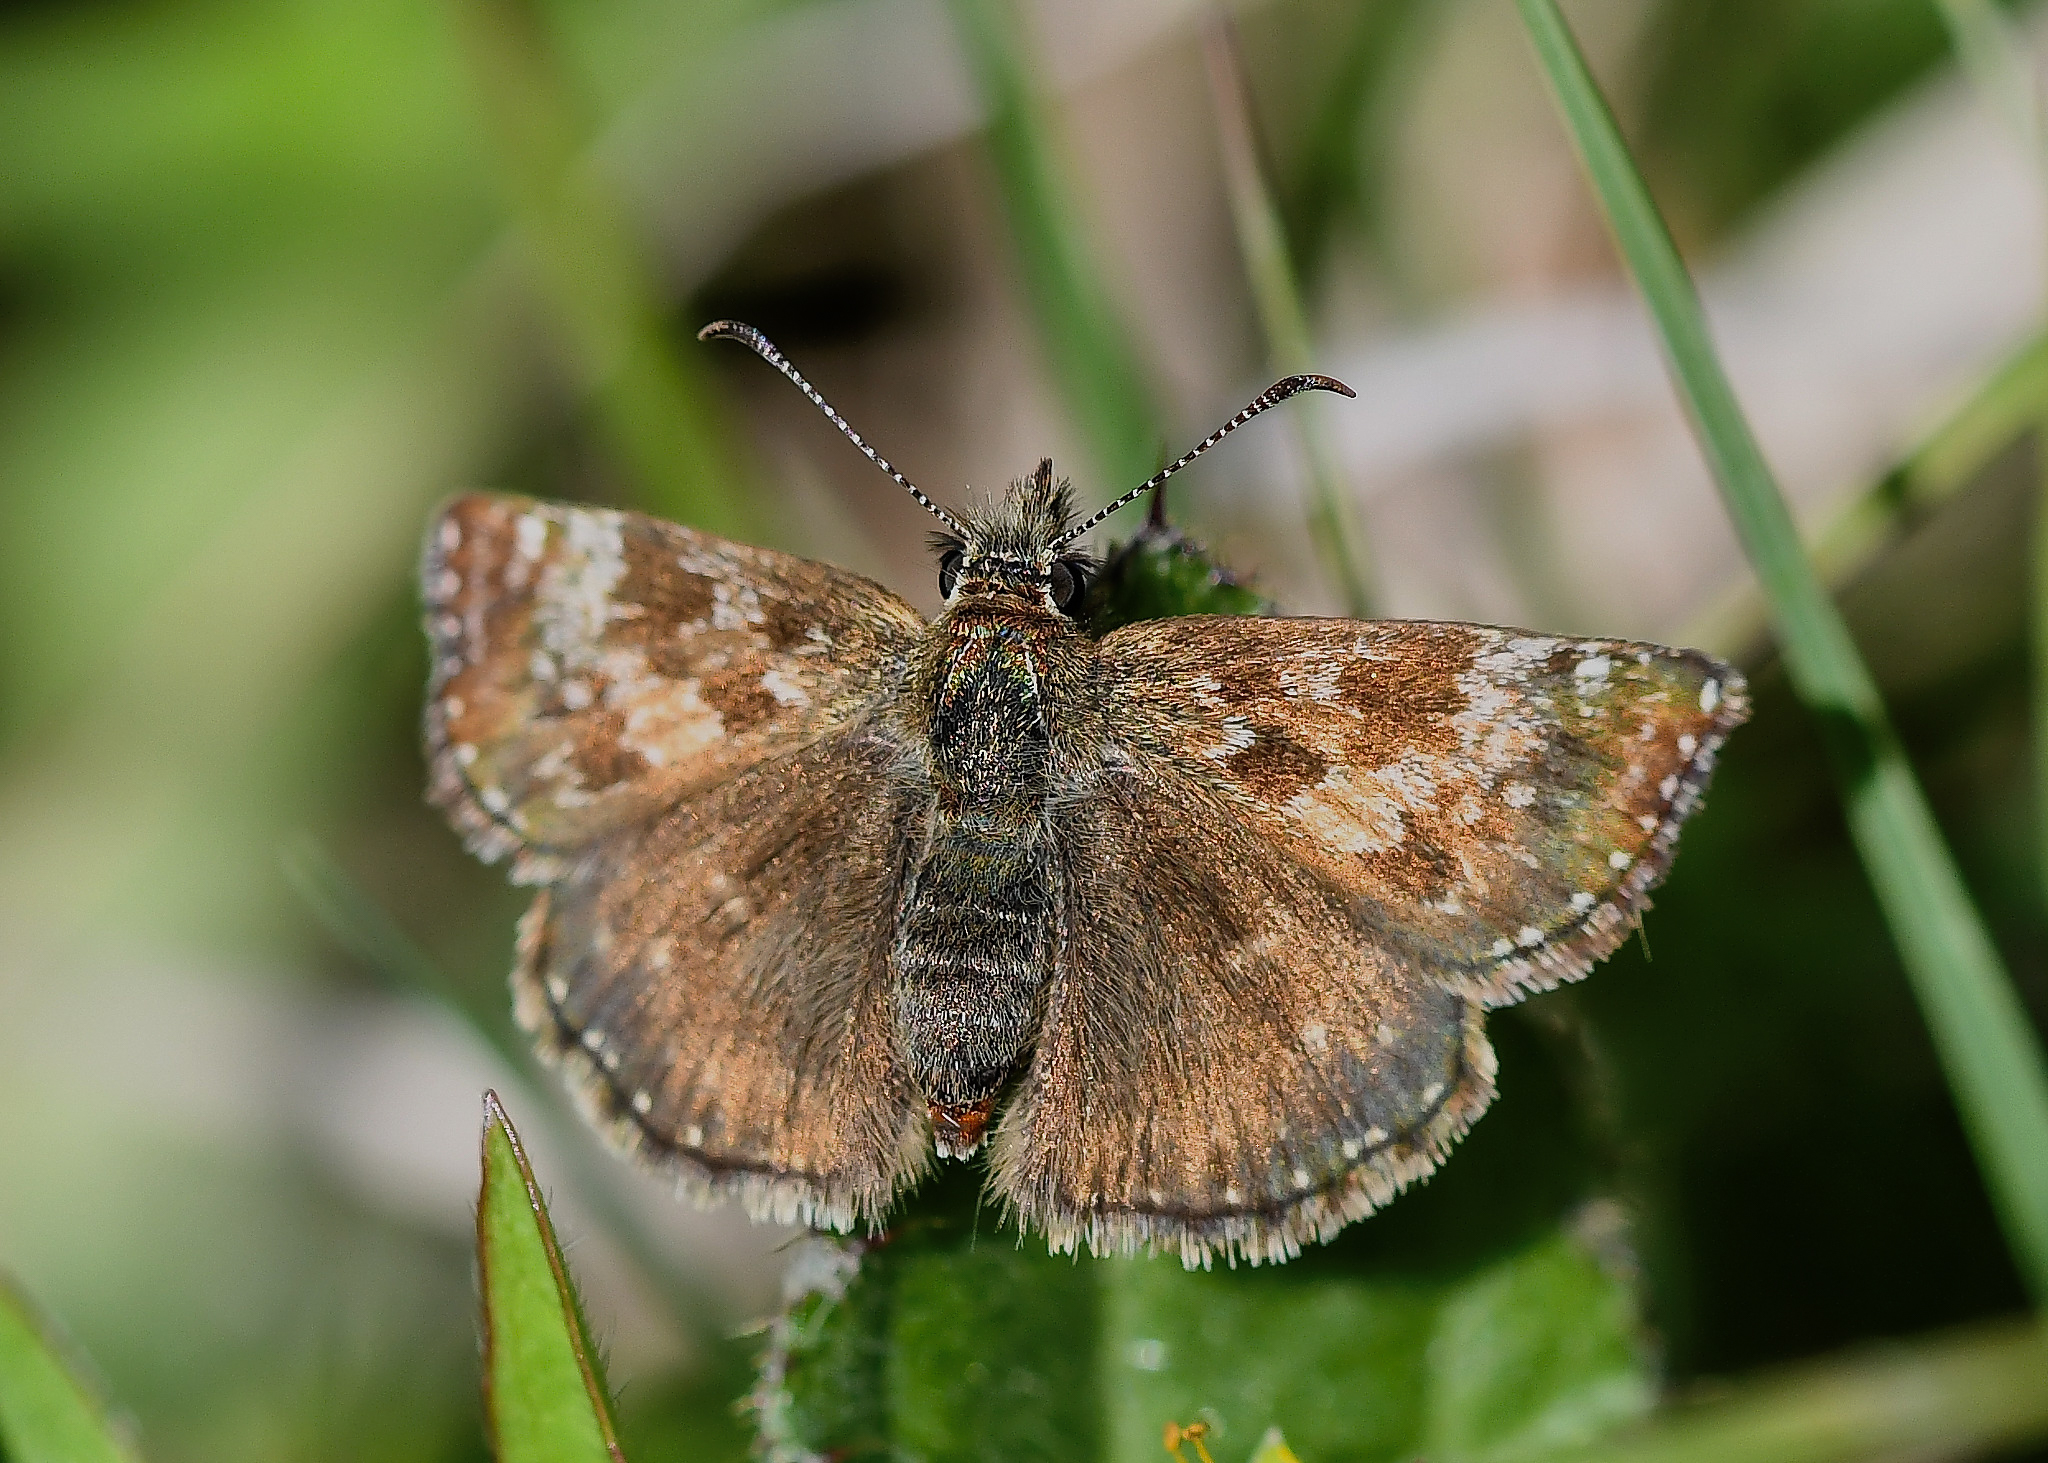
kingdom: Animalia
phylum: Arthropoda
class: Insecta
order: Lepidoptera
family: Hesperiidae
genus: Erynnis
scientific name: Erynnis tages
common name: Dingy skipper
